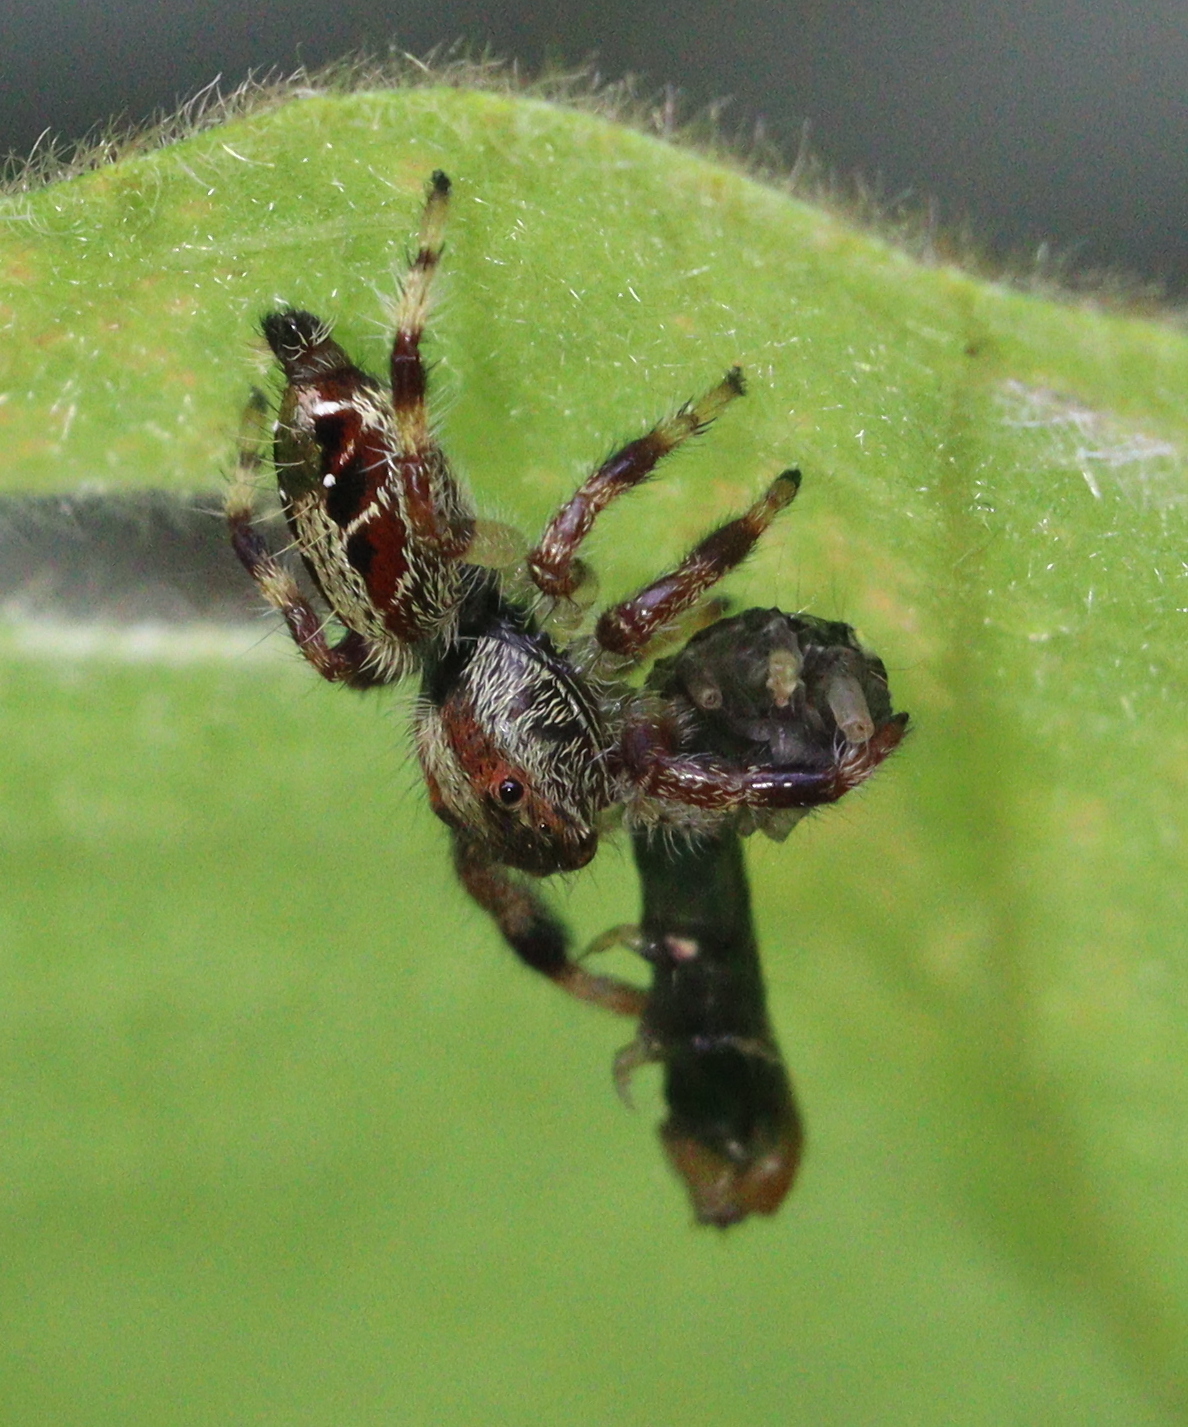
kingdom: Animalia
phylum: Arthropoda
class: Arachnida
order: Araneae
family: Salticidae
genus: Hyllus
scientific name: Hyllus keratodes
